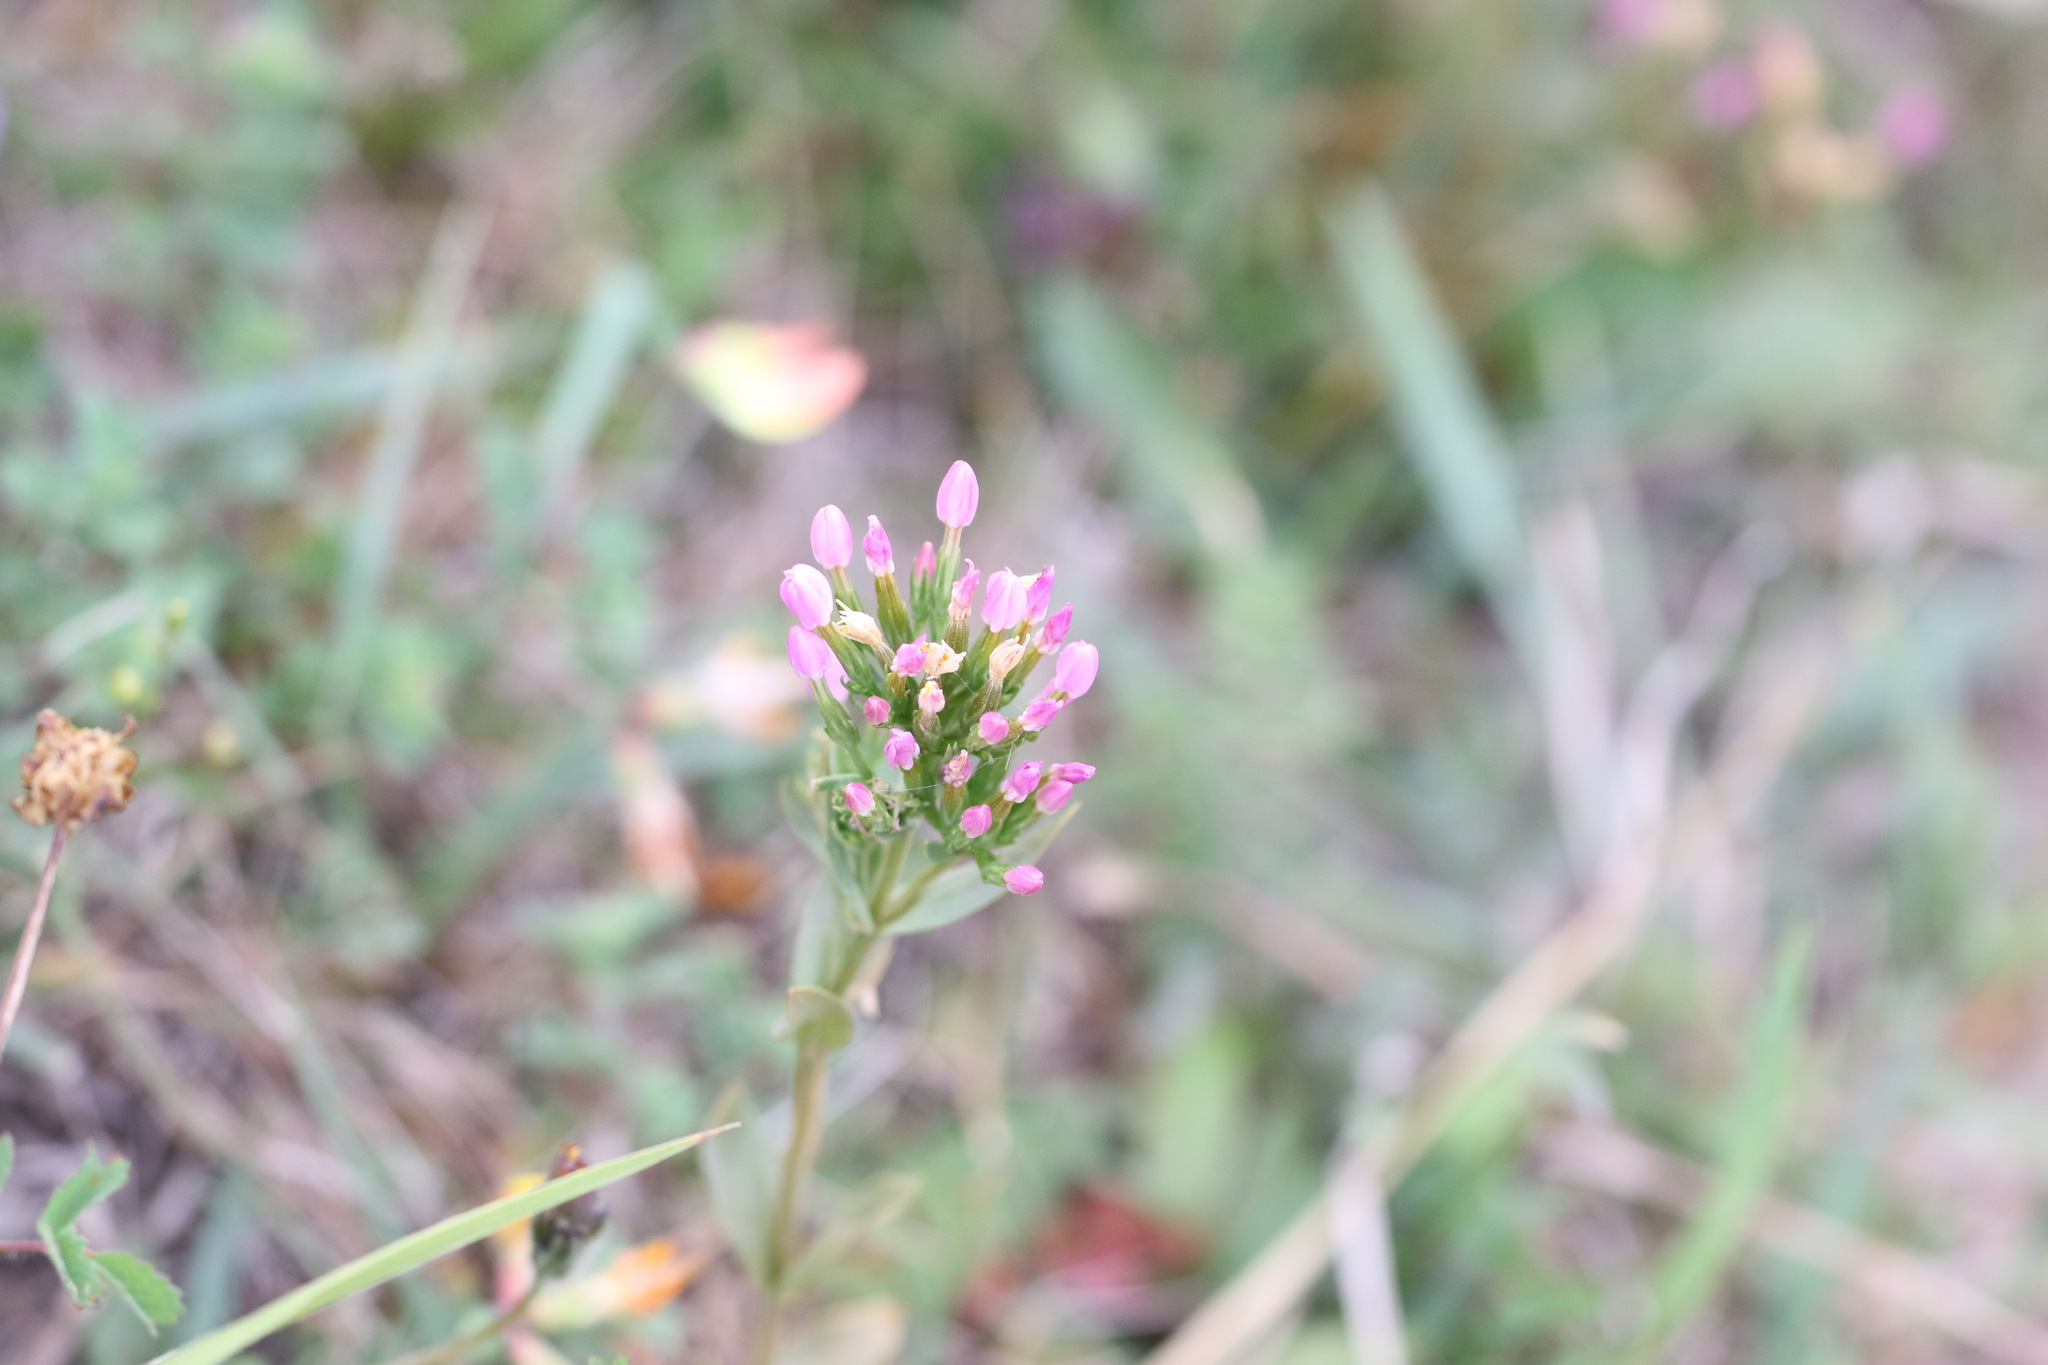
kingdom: Plantae
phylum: Tracheophyta
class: Magnoliopsida
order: Gentianales
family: Gentianaceae
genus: Centaurium
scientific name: Centaurium erythraea
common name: Common centaury
